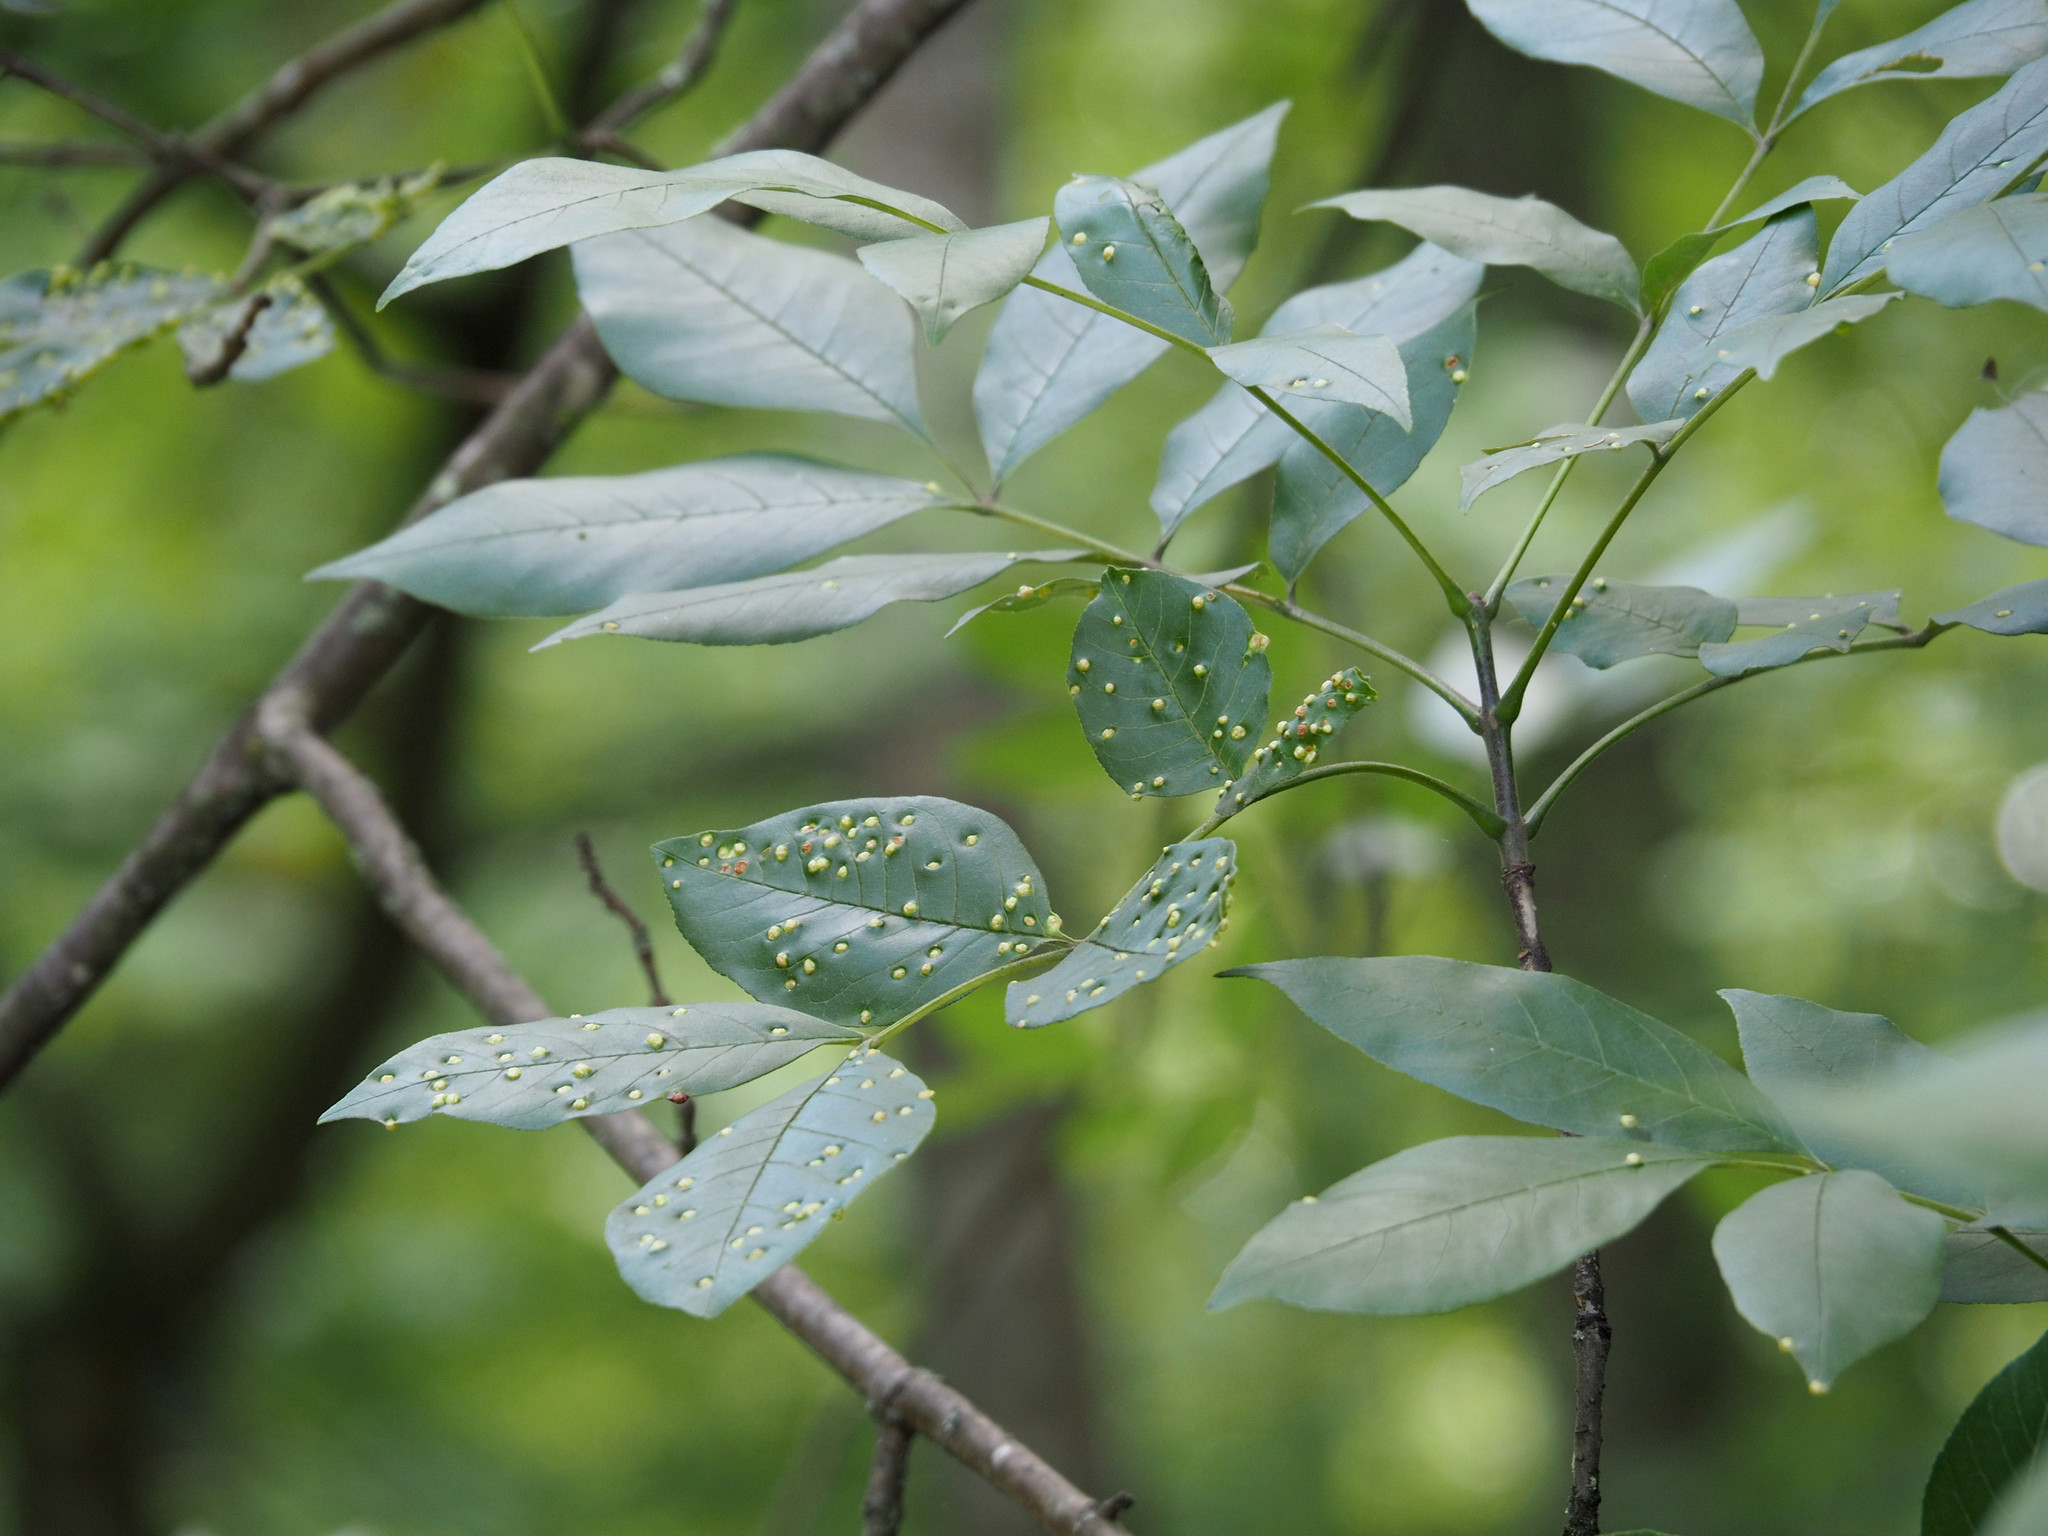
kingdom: Animalia
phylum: Arthropoda
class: Arachnida
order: Trombidiformes
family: Eriophyidae
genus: Aceria
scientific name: Aceria fraxinicola
